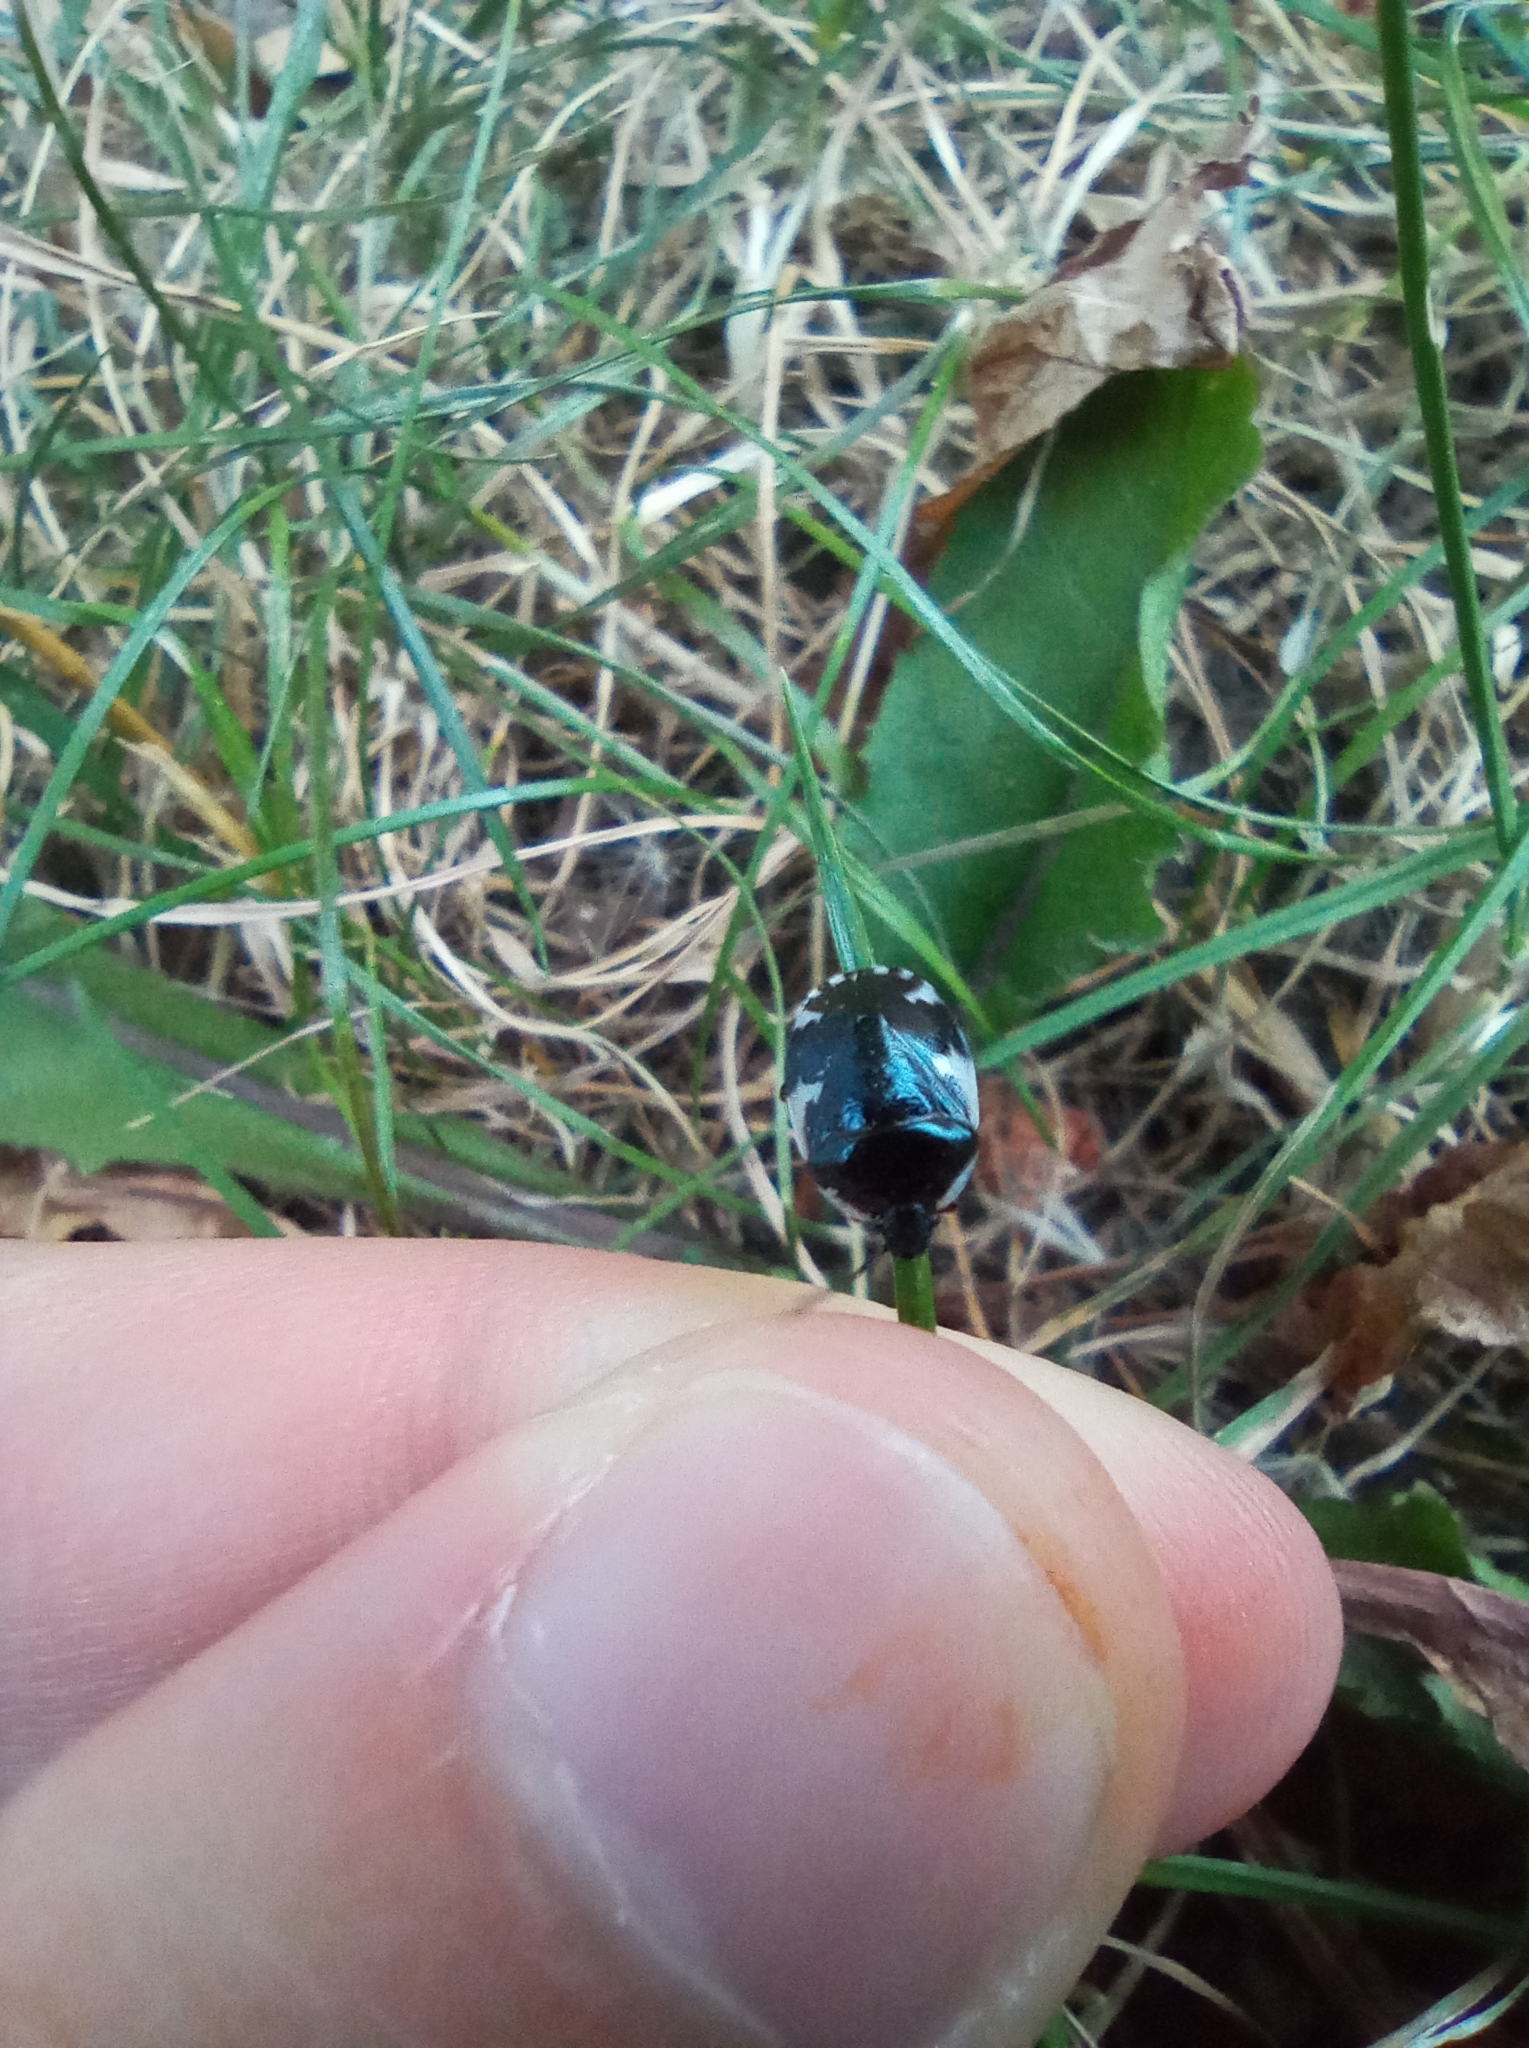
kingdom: Animalia
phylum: Arthropoda
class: Insecta
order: Hemiptera
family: Cydnidae
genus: Tritomegas
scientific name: Tritomegas sexmaculatus
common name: Rambur's pied shieldbug
